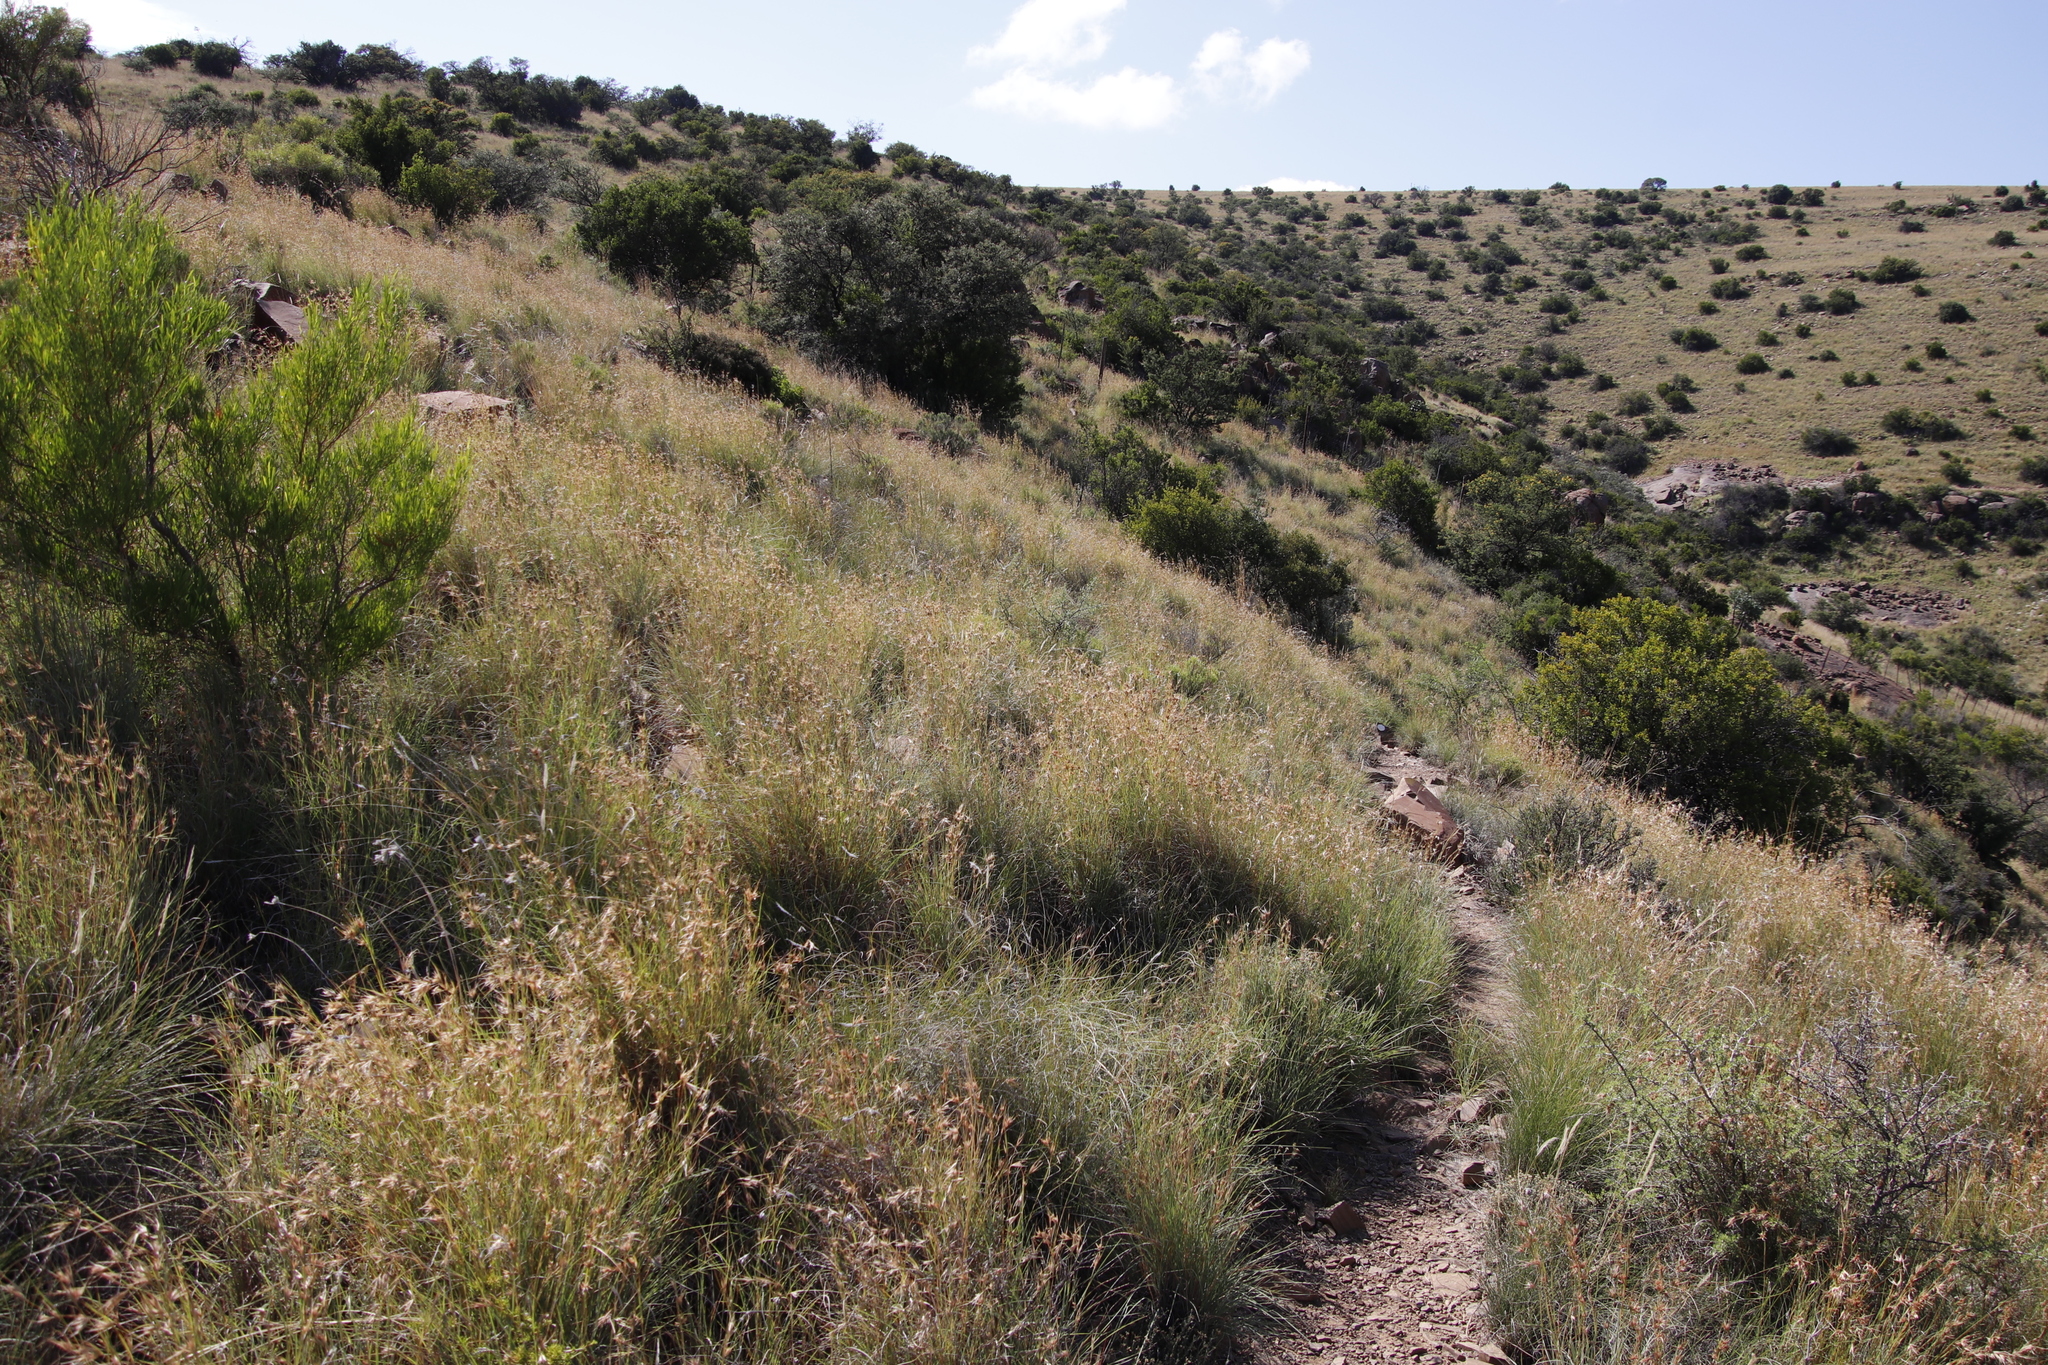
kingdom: Plantae
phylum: Tracheophyta
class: Liliopsida
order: Poales
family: Poaceae
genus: Themeda
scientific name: Themeda triandra
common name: Kangaroo grass
